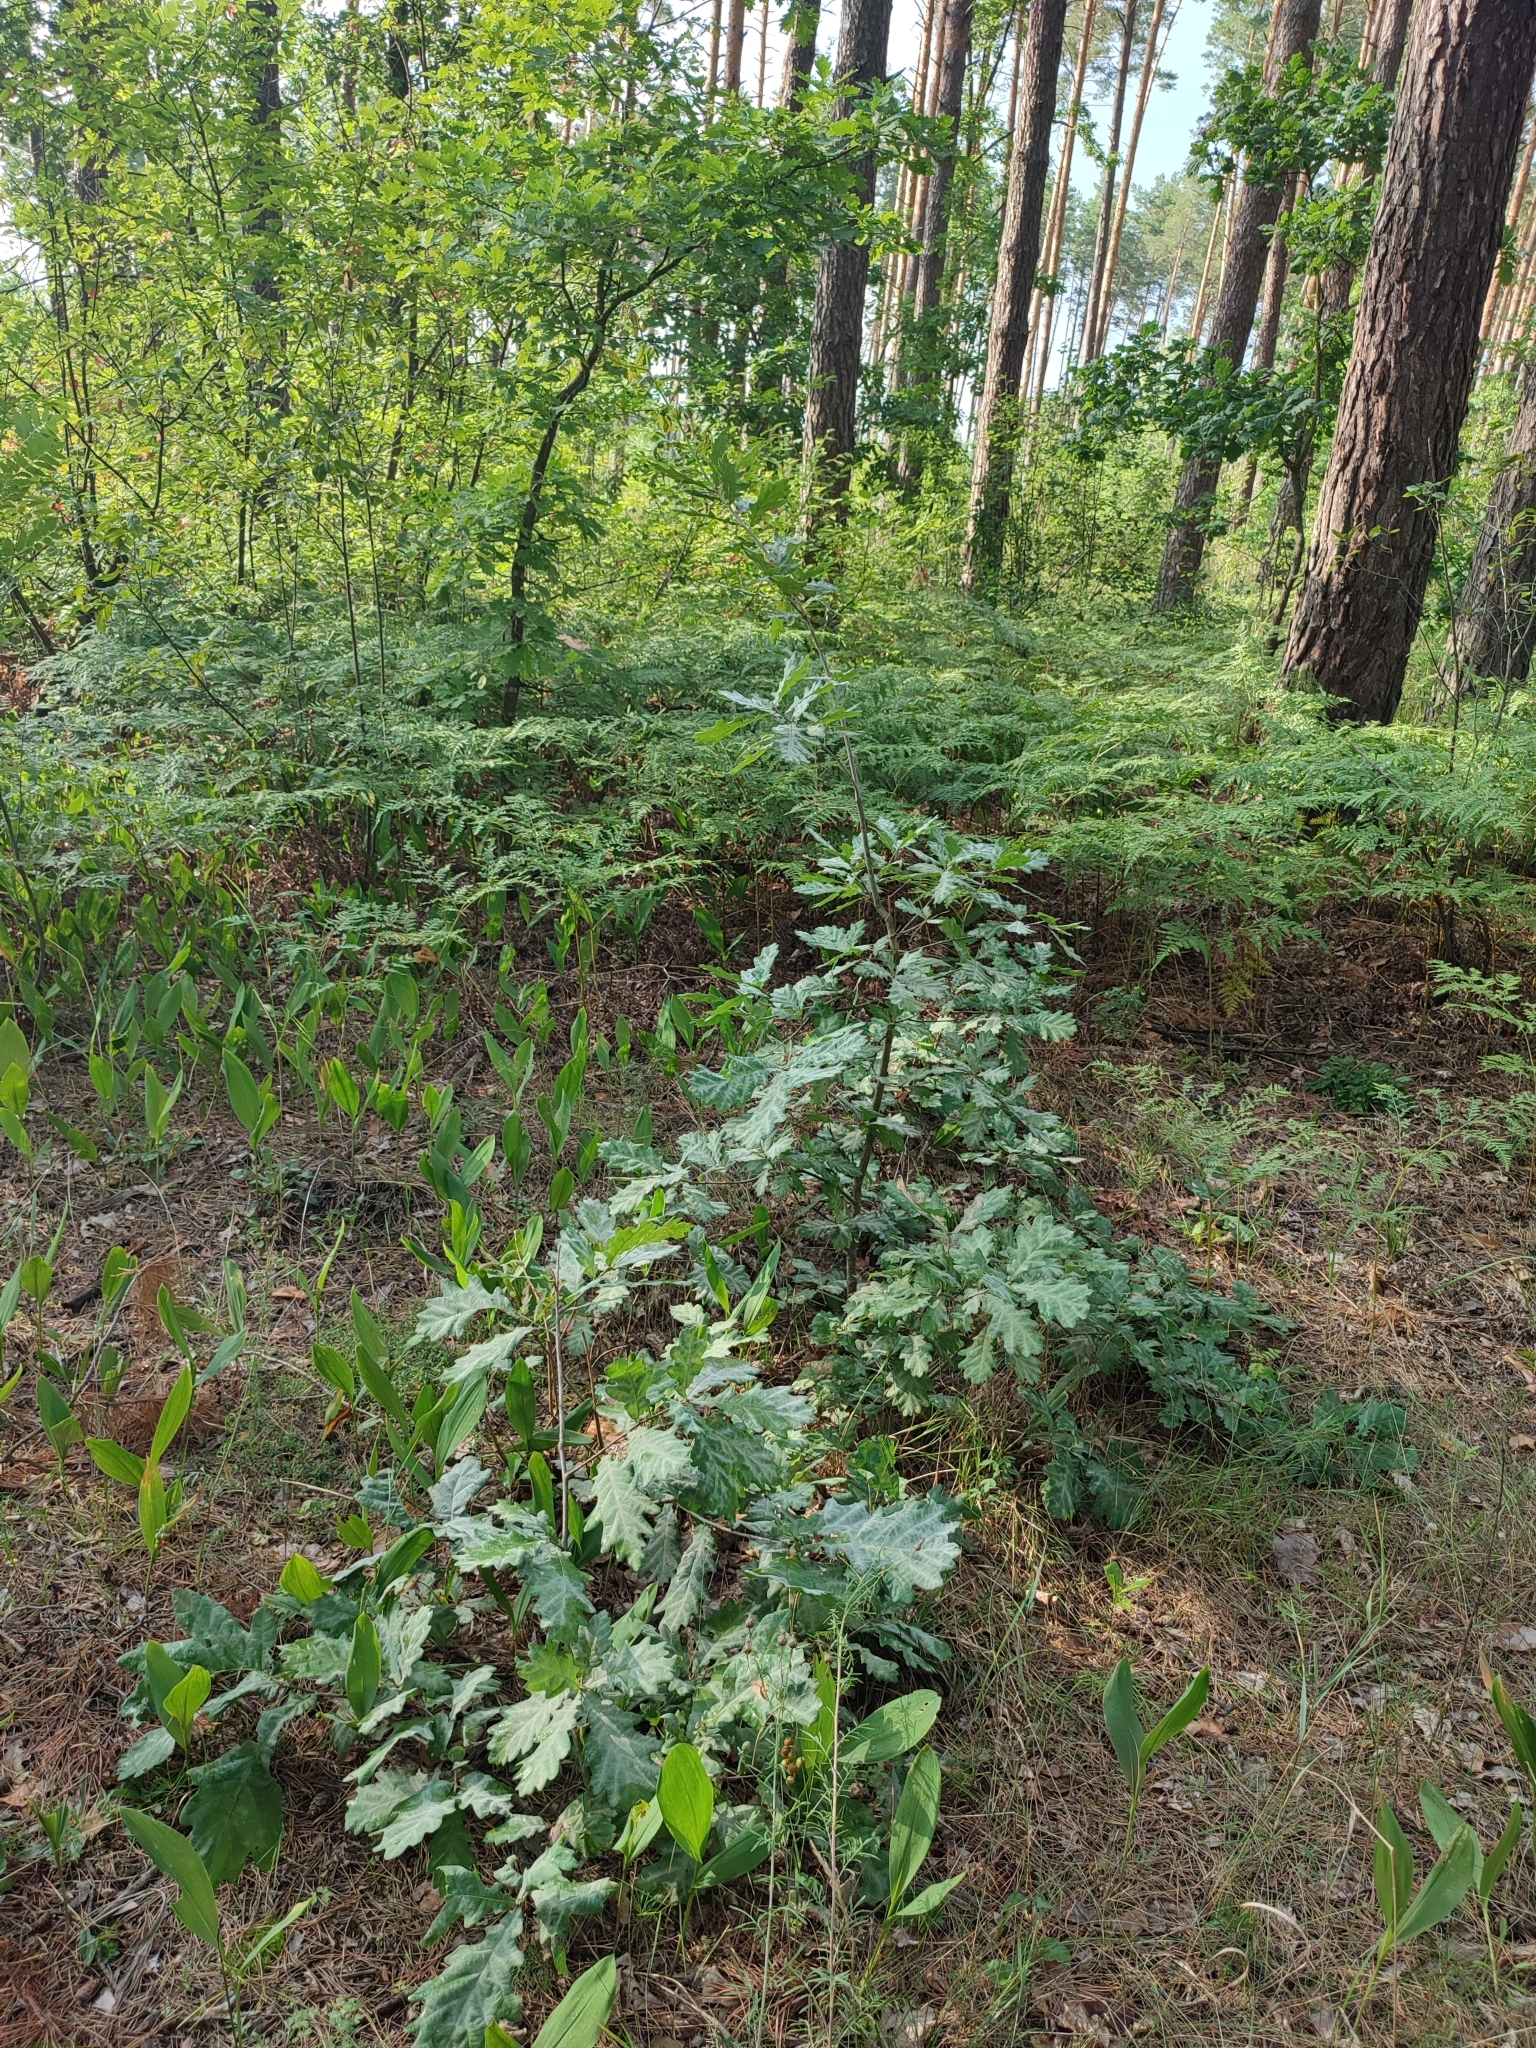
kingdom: Plantae
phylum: Tracheophyta
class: Magnoliopsida
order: Fagales
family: Fagaceae
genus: Quercus
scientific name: Quercus robur
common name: Pedunculate oak
